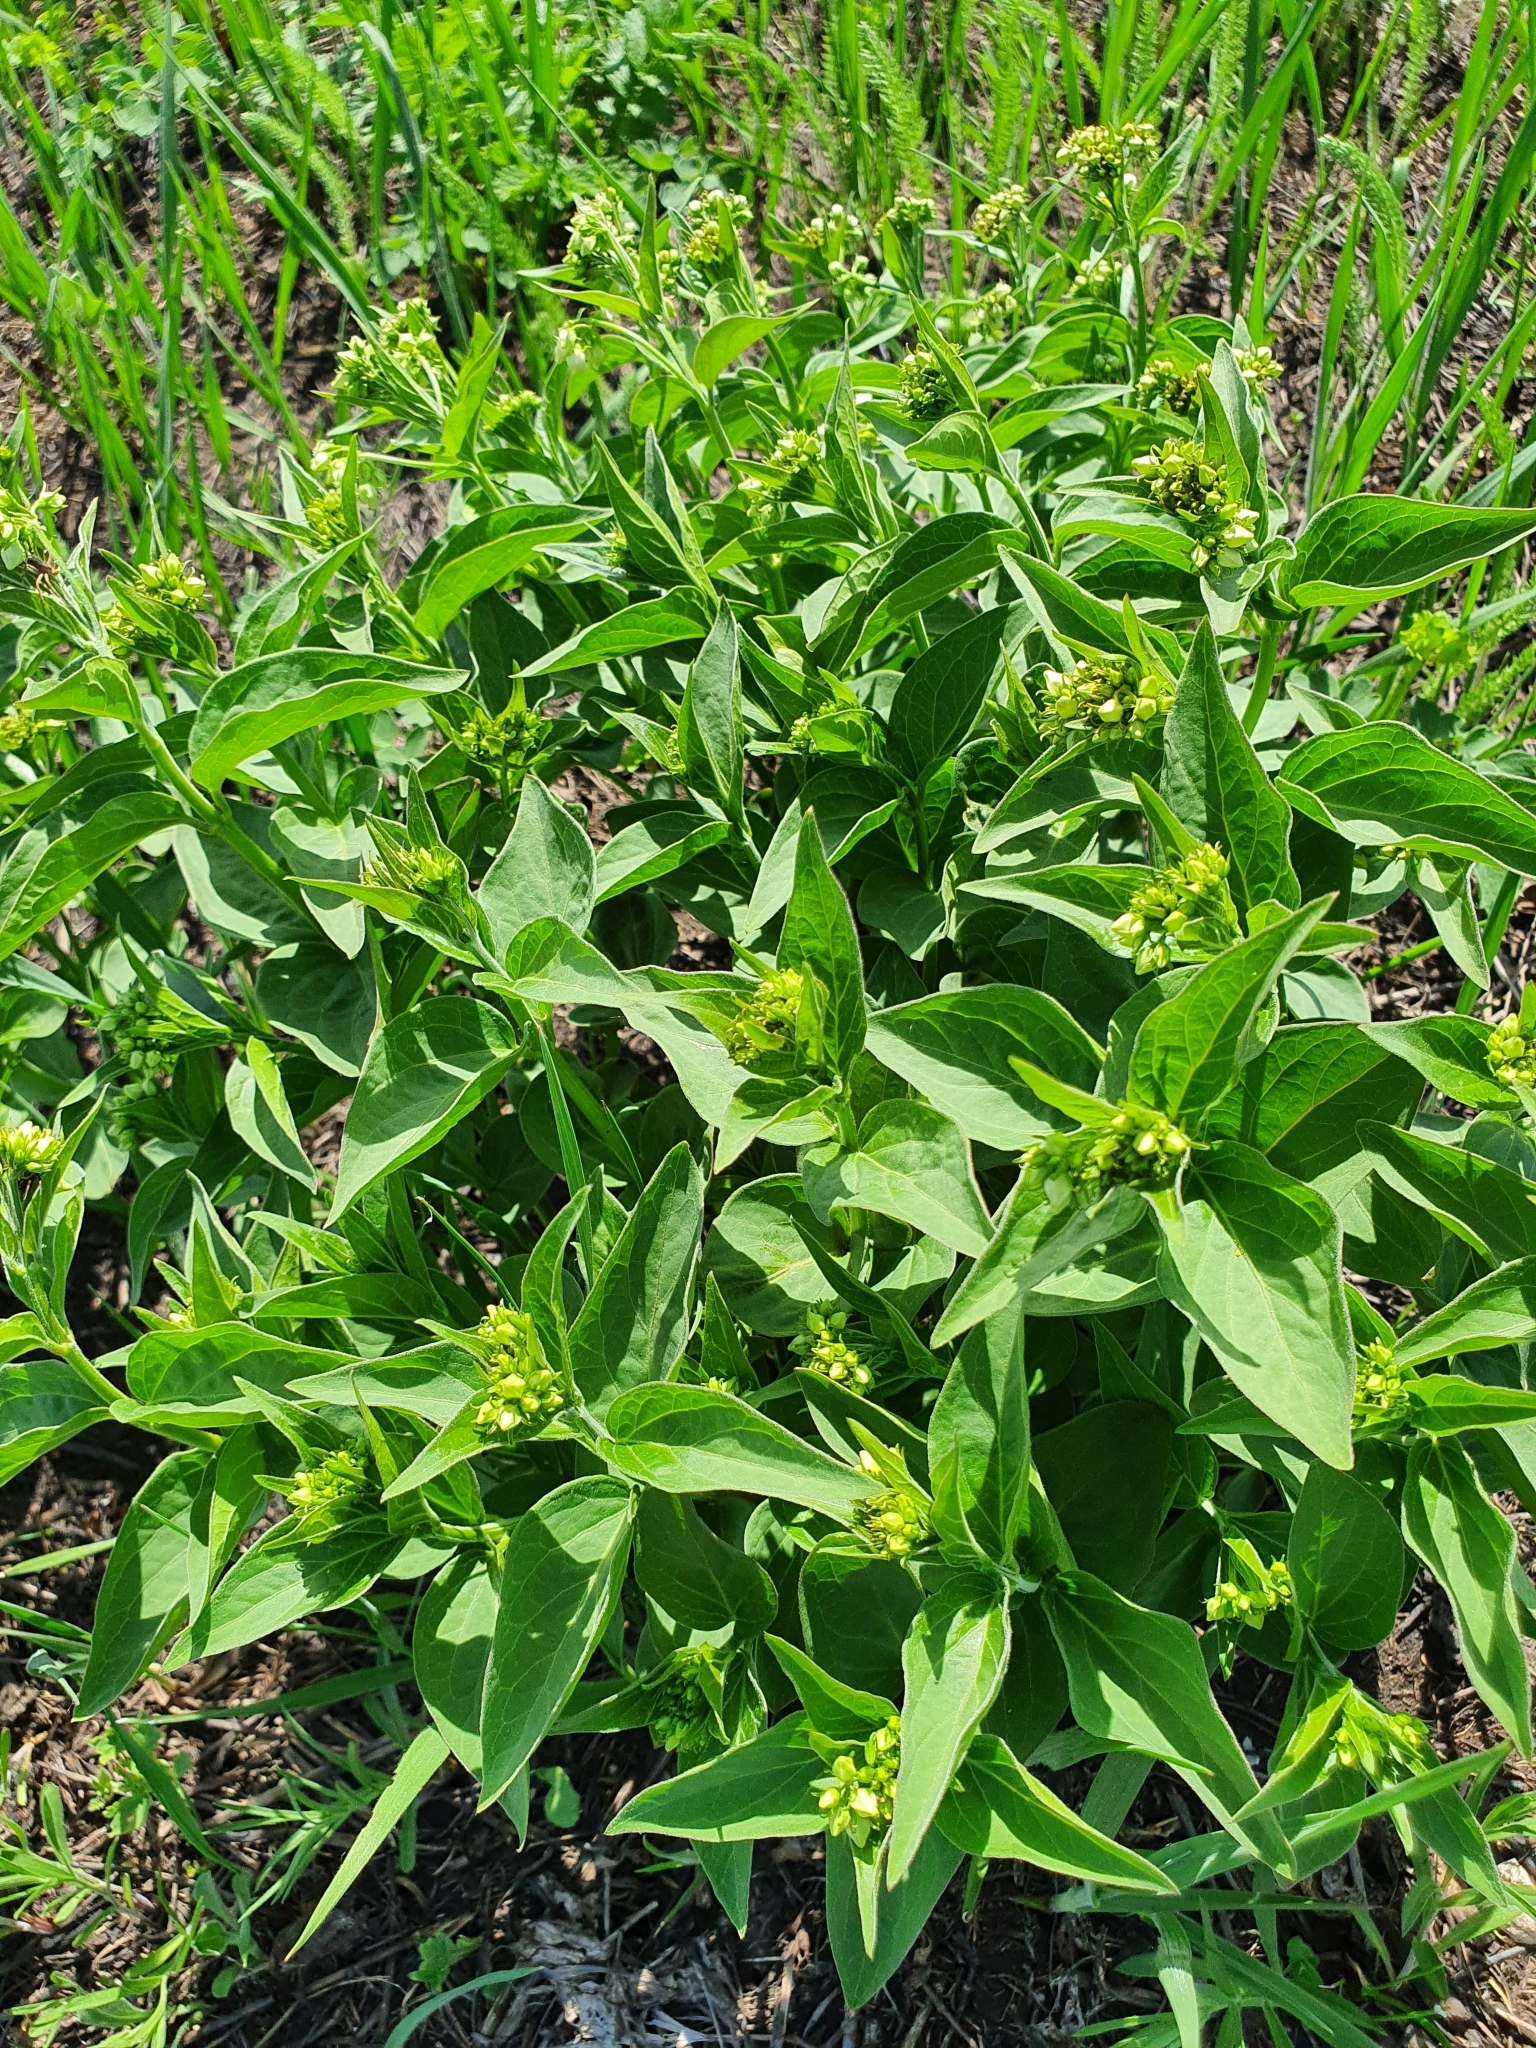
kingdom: Plantae
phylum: Tracheophyta
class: Magnoliopsida
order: Gentianales
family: Apocynaceae
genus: Vincetoxicum
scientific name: Vincetoxicum hirundinaria
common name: White swallowwort
